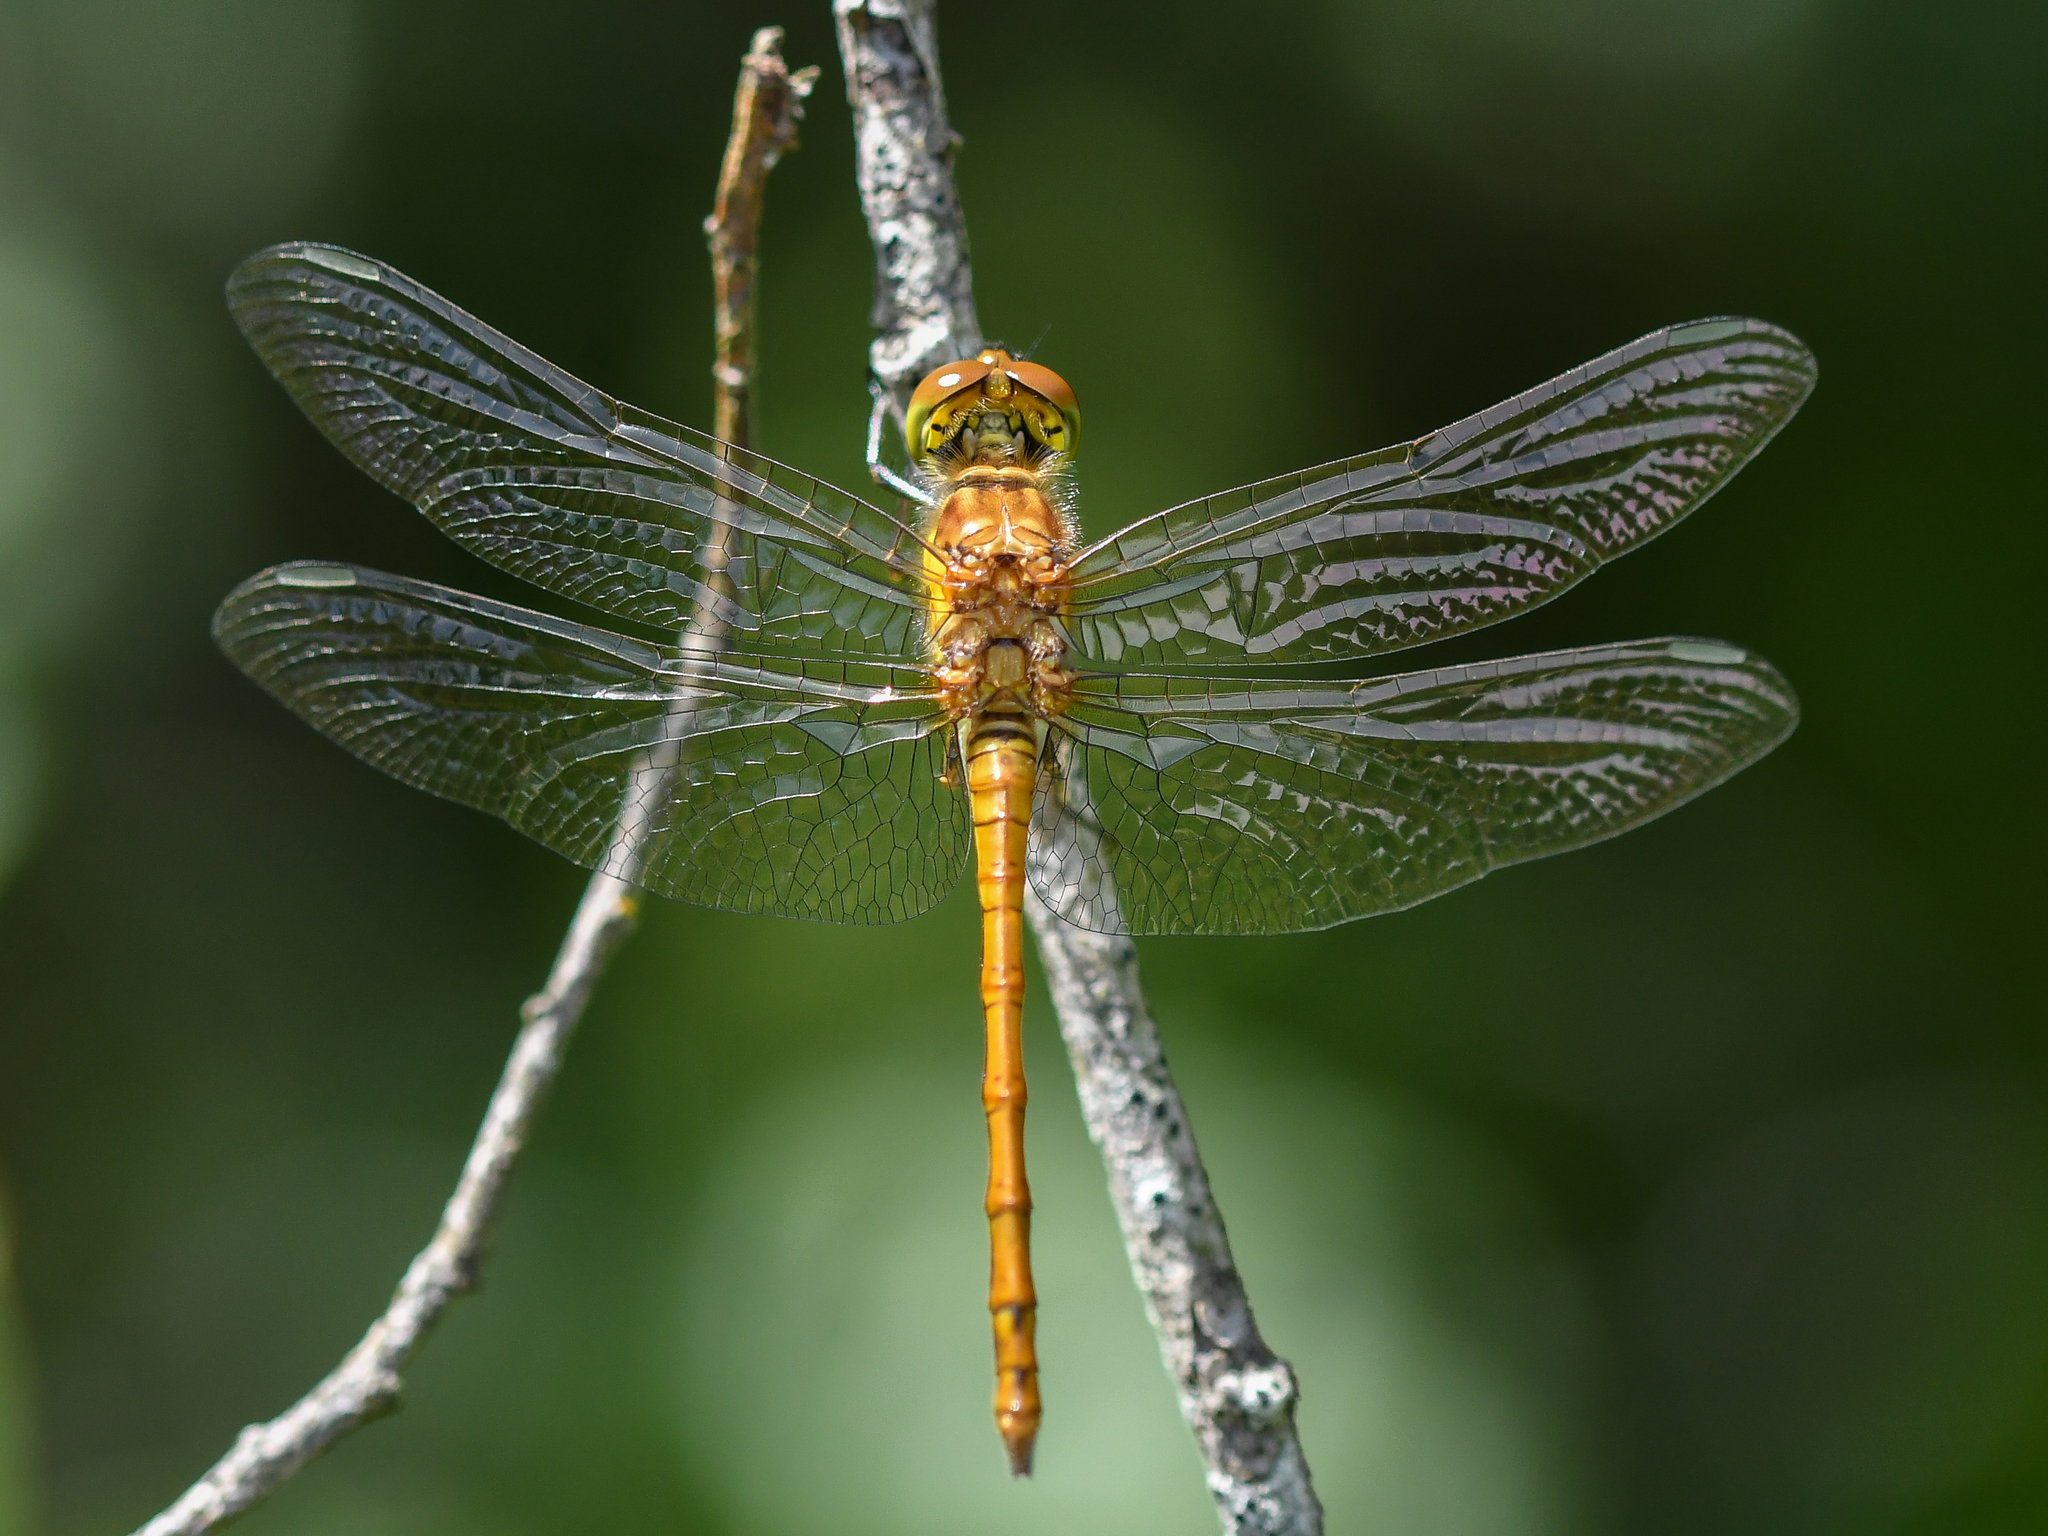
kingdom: Animalia
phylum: Arthropoda
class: Insecta
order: Odonata
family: Libellulidae
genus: Sympetrum
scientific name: Sympetrum striolatum
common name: Common darter
